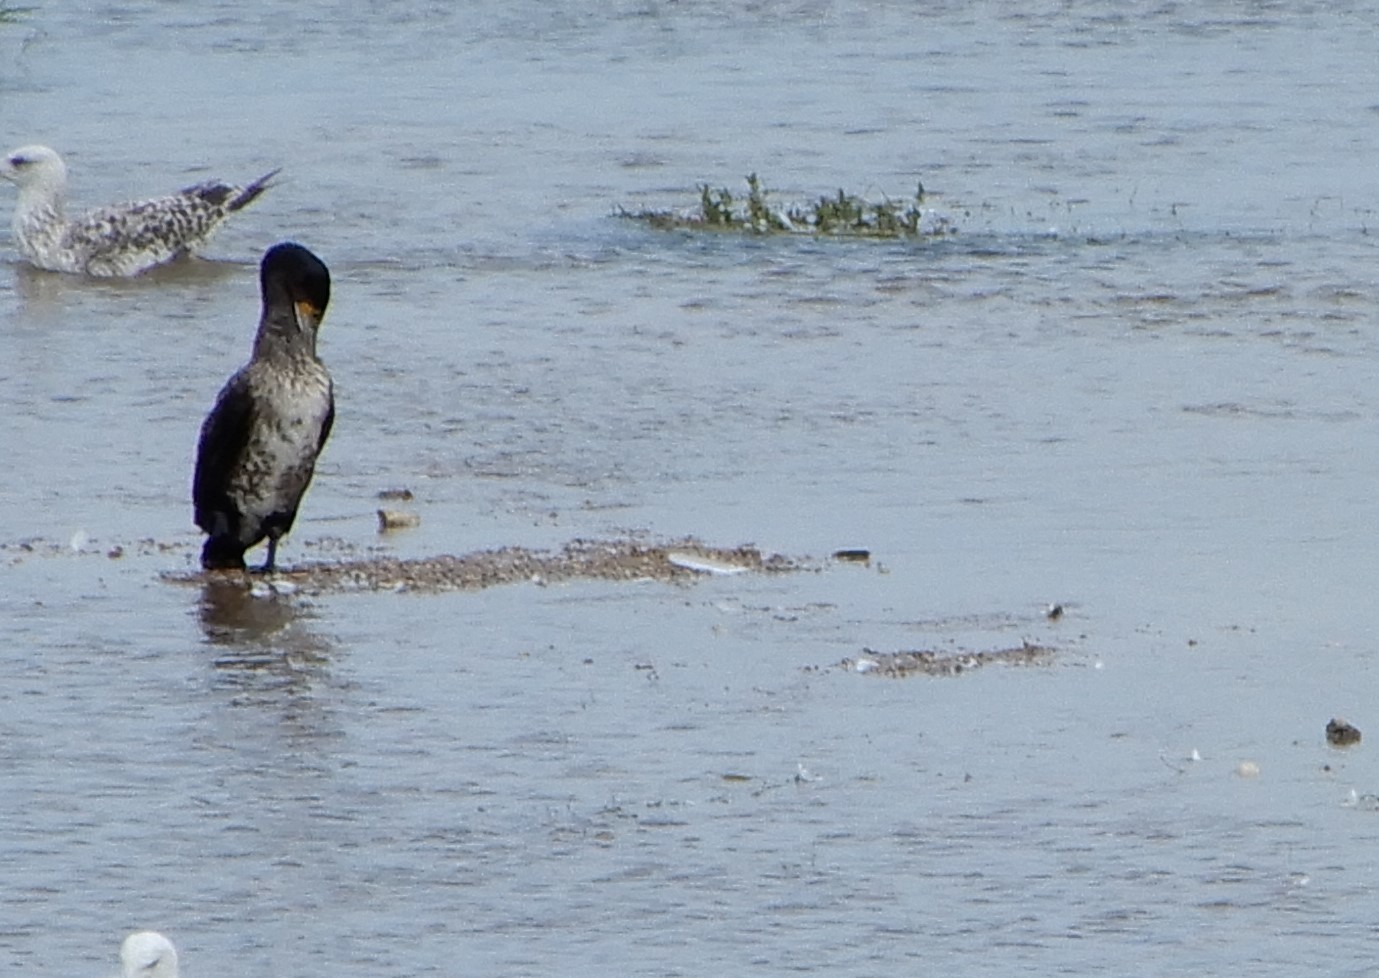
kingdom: Animalia
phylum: Chordata
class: Aves
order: Suliformes
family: Phalacrocoracidae
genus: Phalacrocorax
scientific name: Phalacrocorax carbo
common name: Great cormorant
